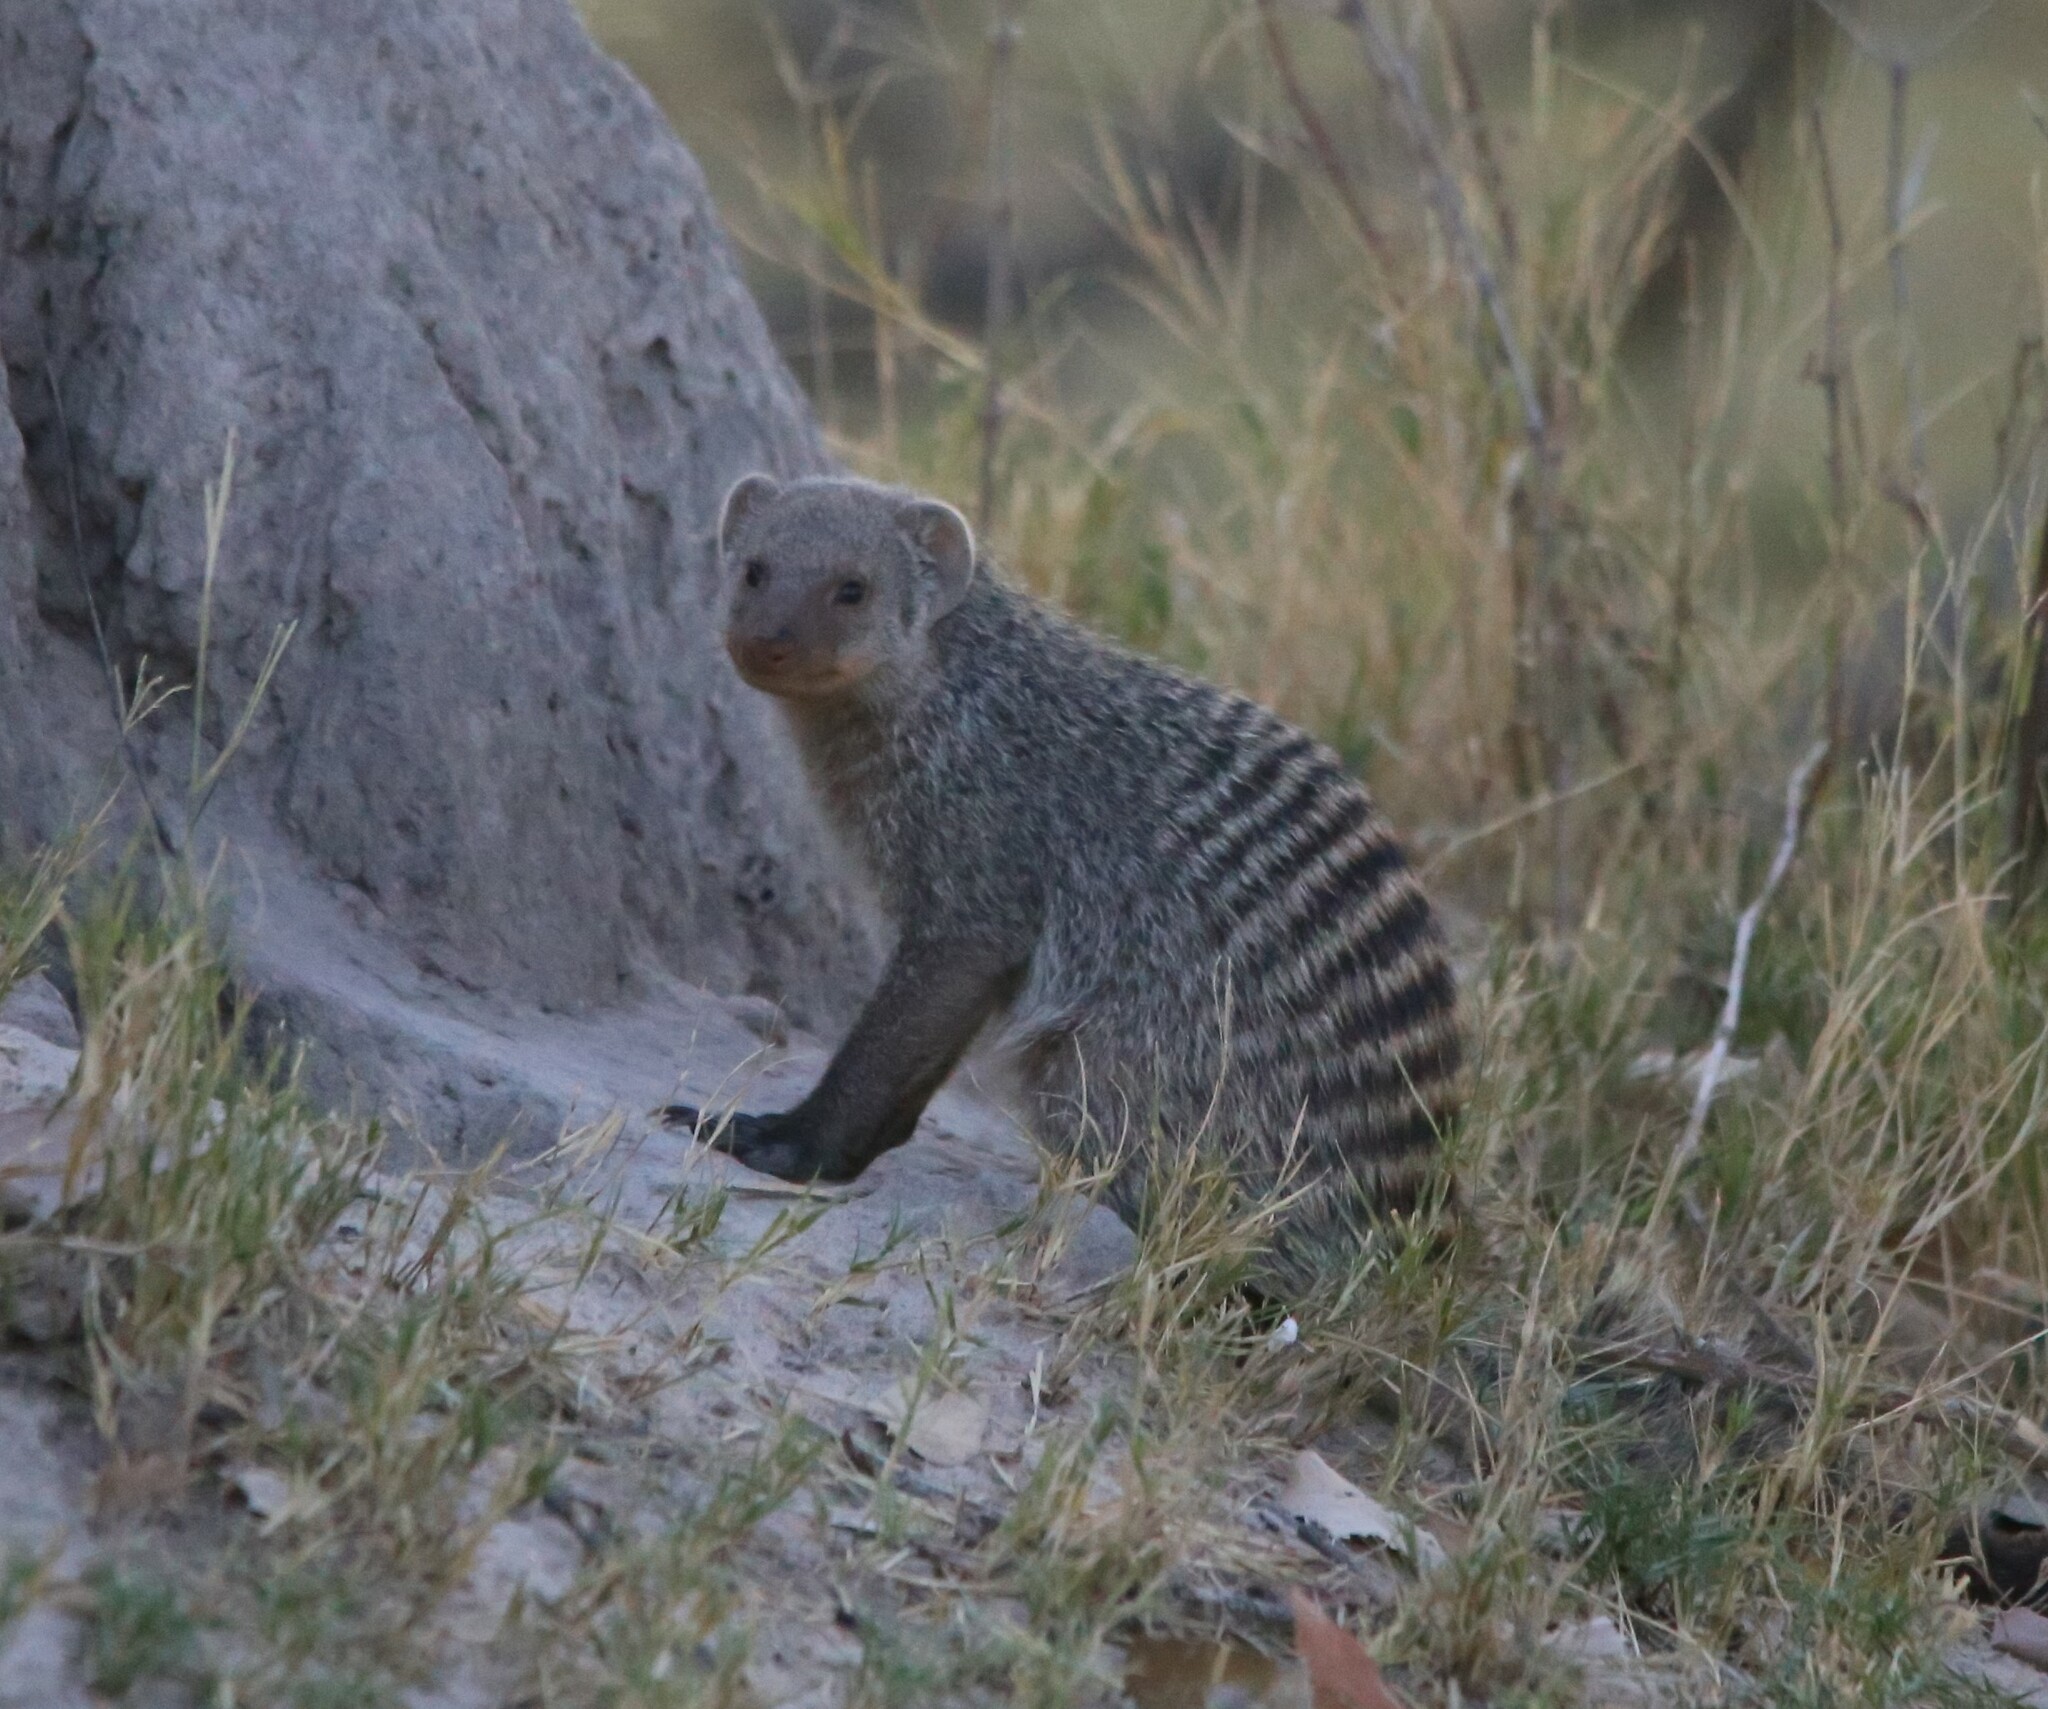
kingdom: Animalia
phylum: Chordata
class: Mammalia
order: Carnivora
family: Herpestidae
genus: Mungos
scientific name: Mungos mungo
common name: Banded mongoose
